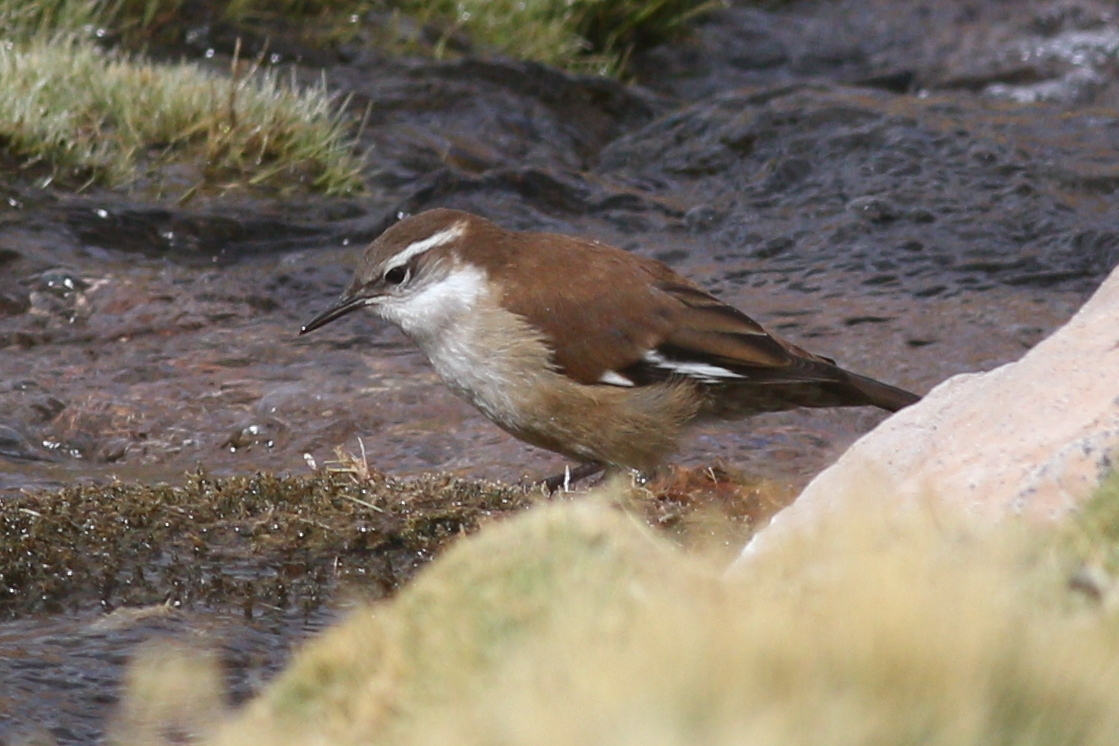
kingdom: Animalia
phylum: Chordata
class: Aves
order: Passeriformes
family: Furnariidae
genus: Cinclodes
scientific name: Cinclodes atacamensis
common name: White-winged cinclodes
